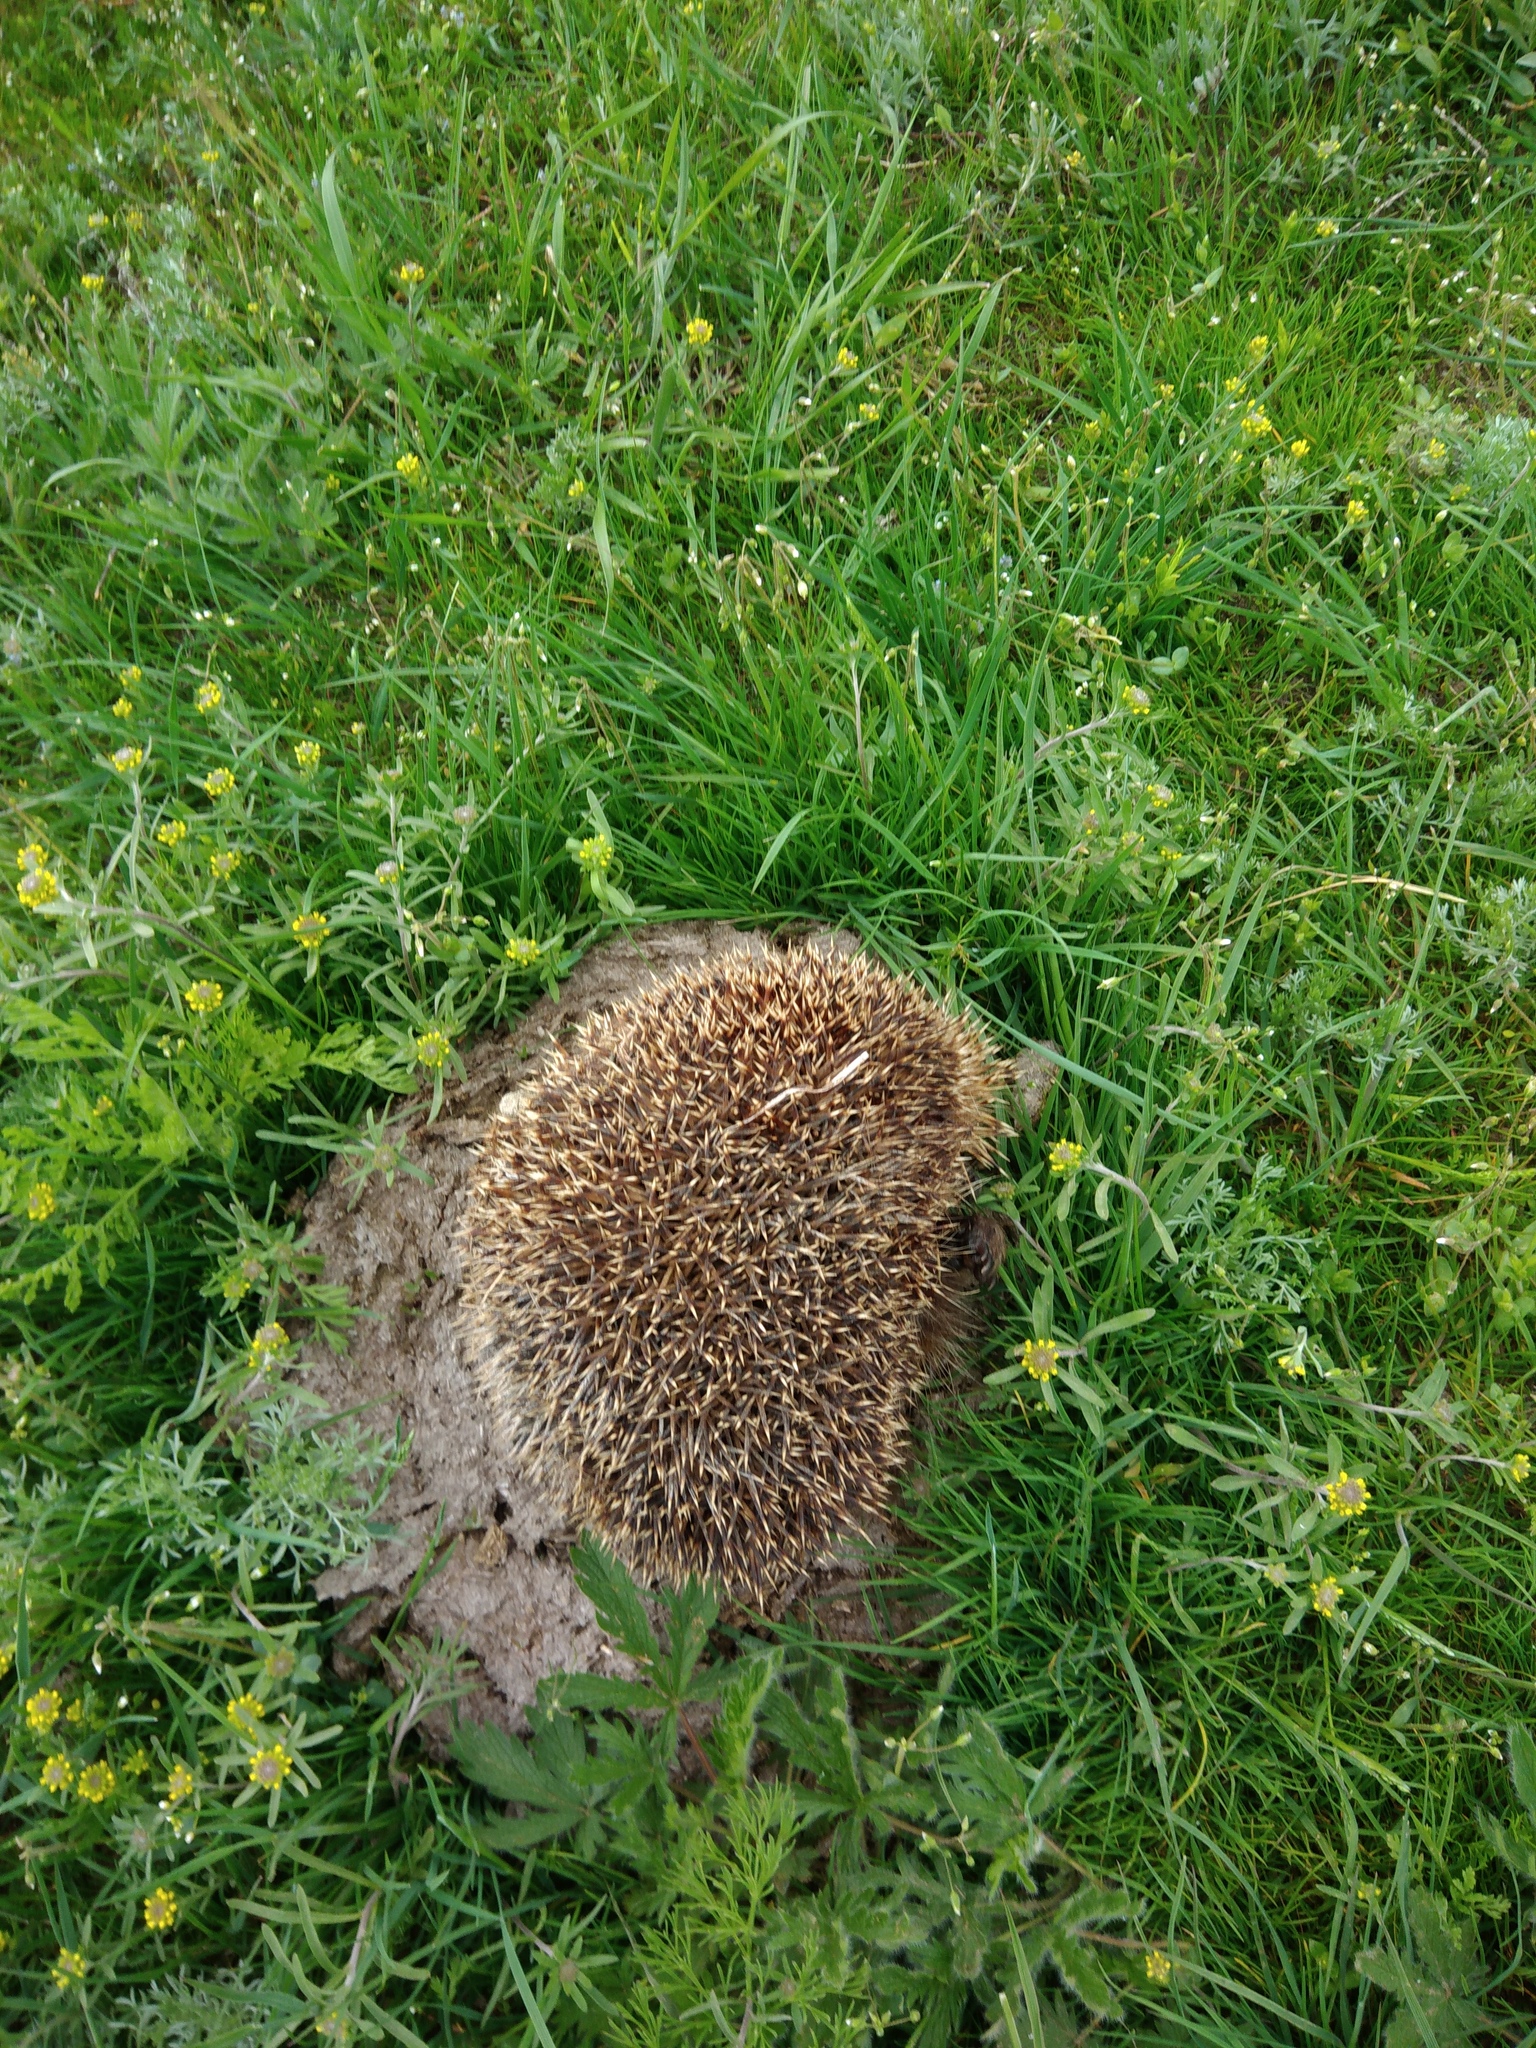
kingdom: Animalia
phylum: Chordata
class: Mammalia
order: Erinaceomorpha
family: Erinaceidae
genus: Erinaceus
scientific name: Erinaceus roumanicus
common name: Northern white-breasted hedgehog
